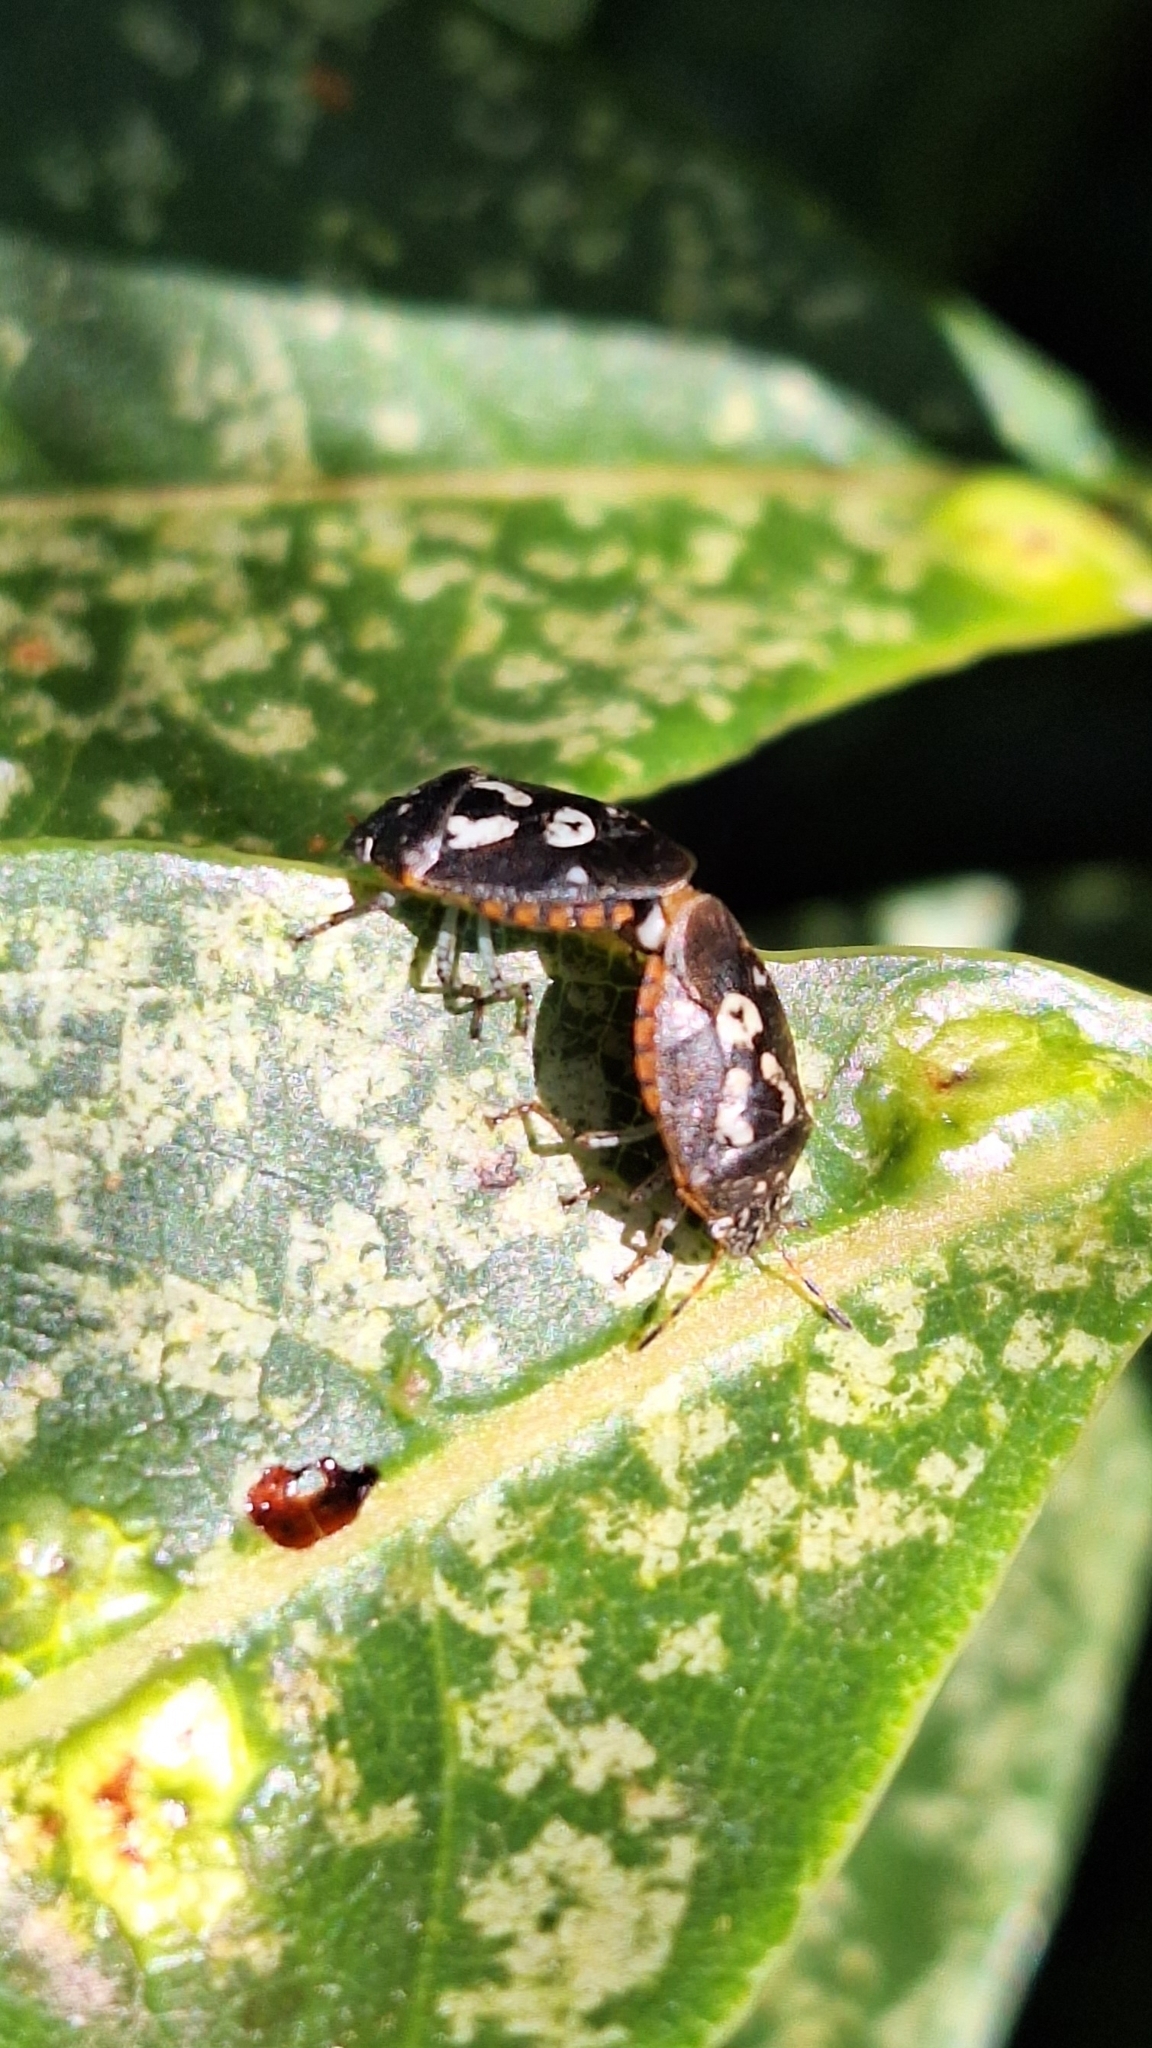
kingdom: Animalia
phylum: Arthropoda
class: Insecta
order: Hemiptera
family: Pentatomidae
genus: Pseudapines
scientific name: Pseudapines
